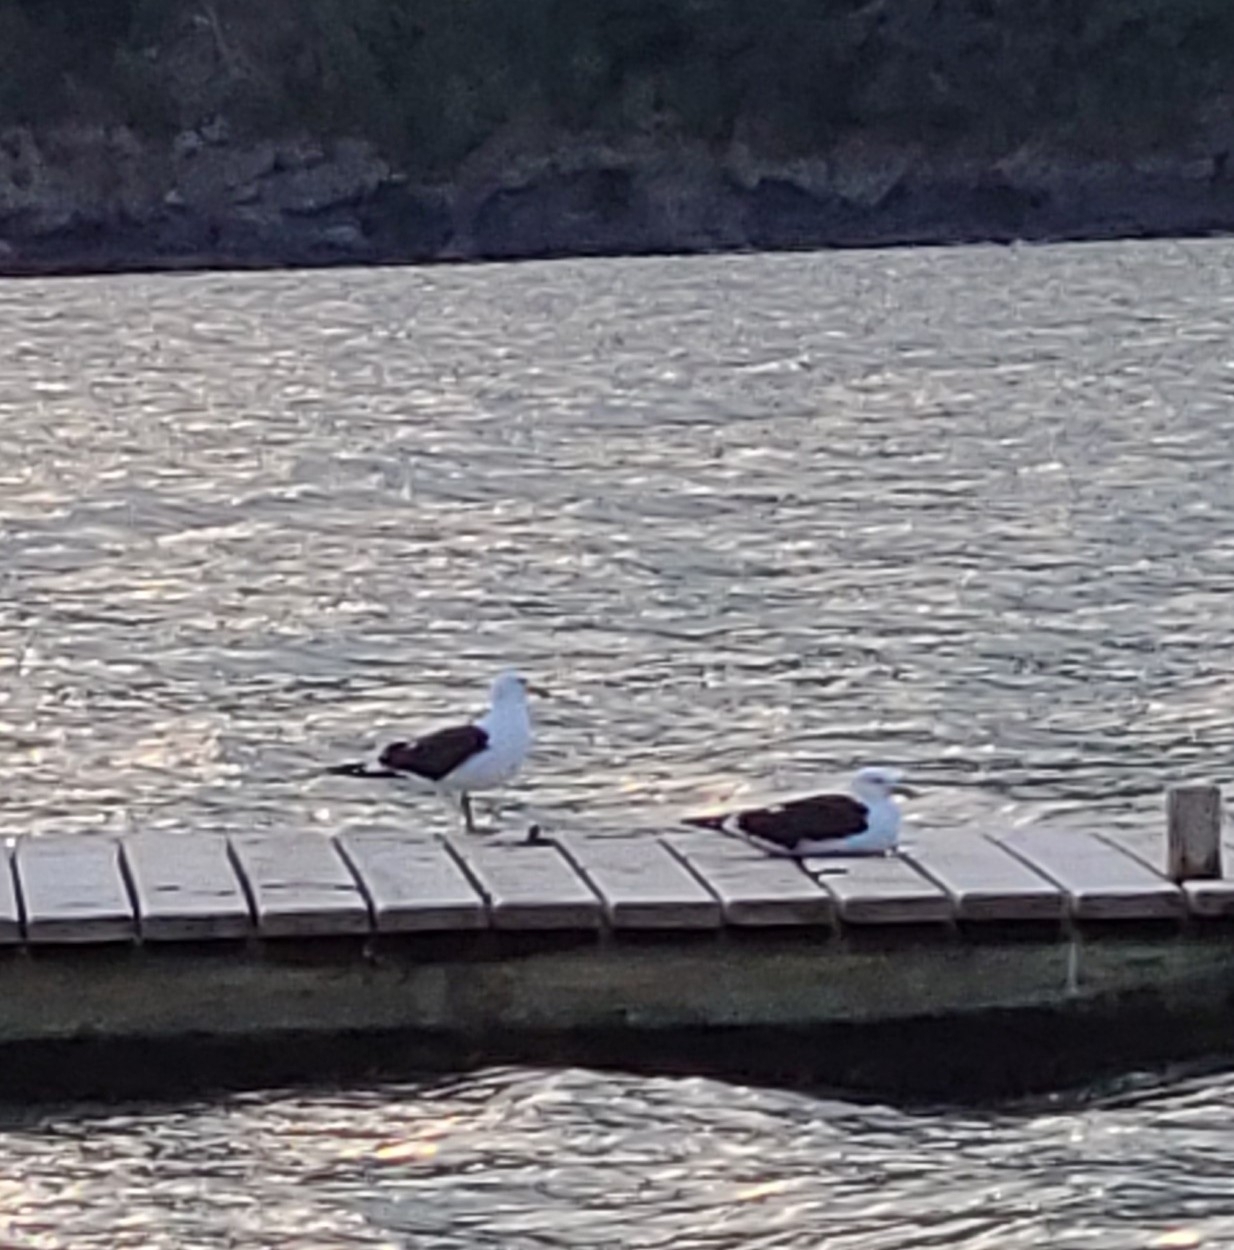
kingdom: Animalia
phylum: Chordata
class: Aves
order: Charadriiformes
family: Laridae
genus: Larus
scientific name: Larus dominicanus
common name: Kelp gull
